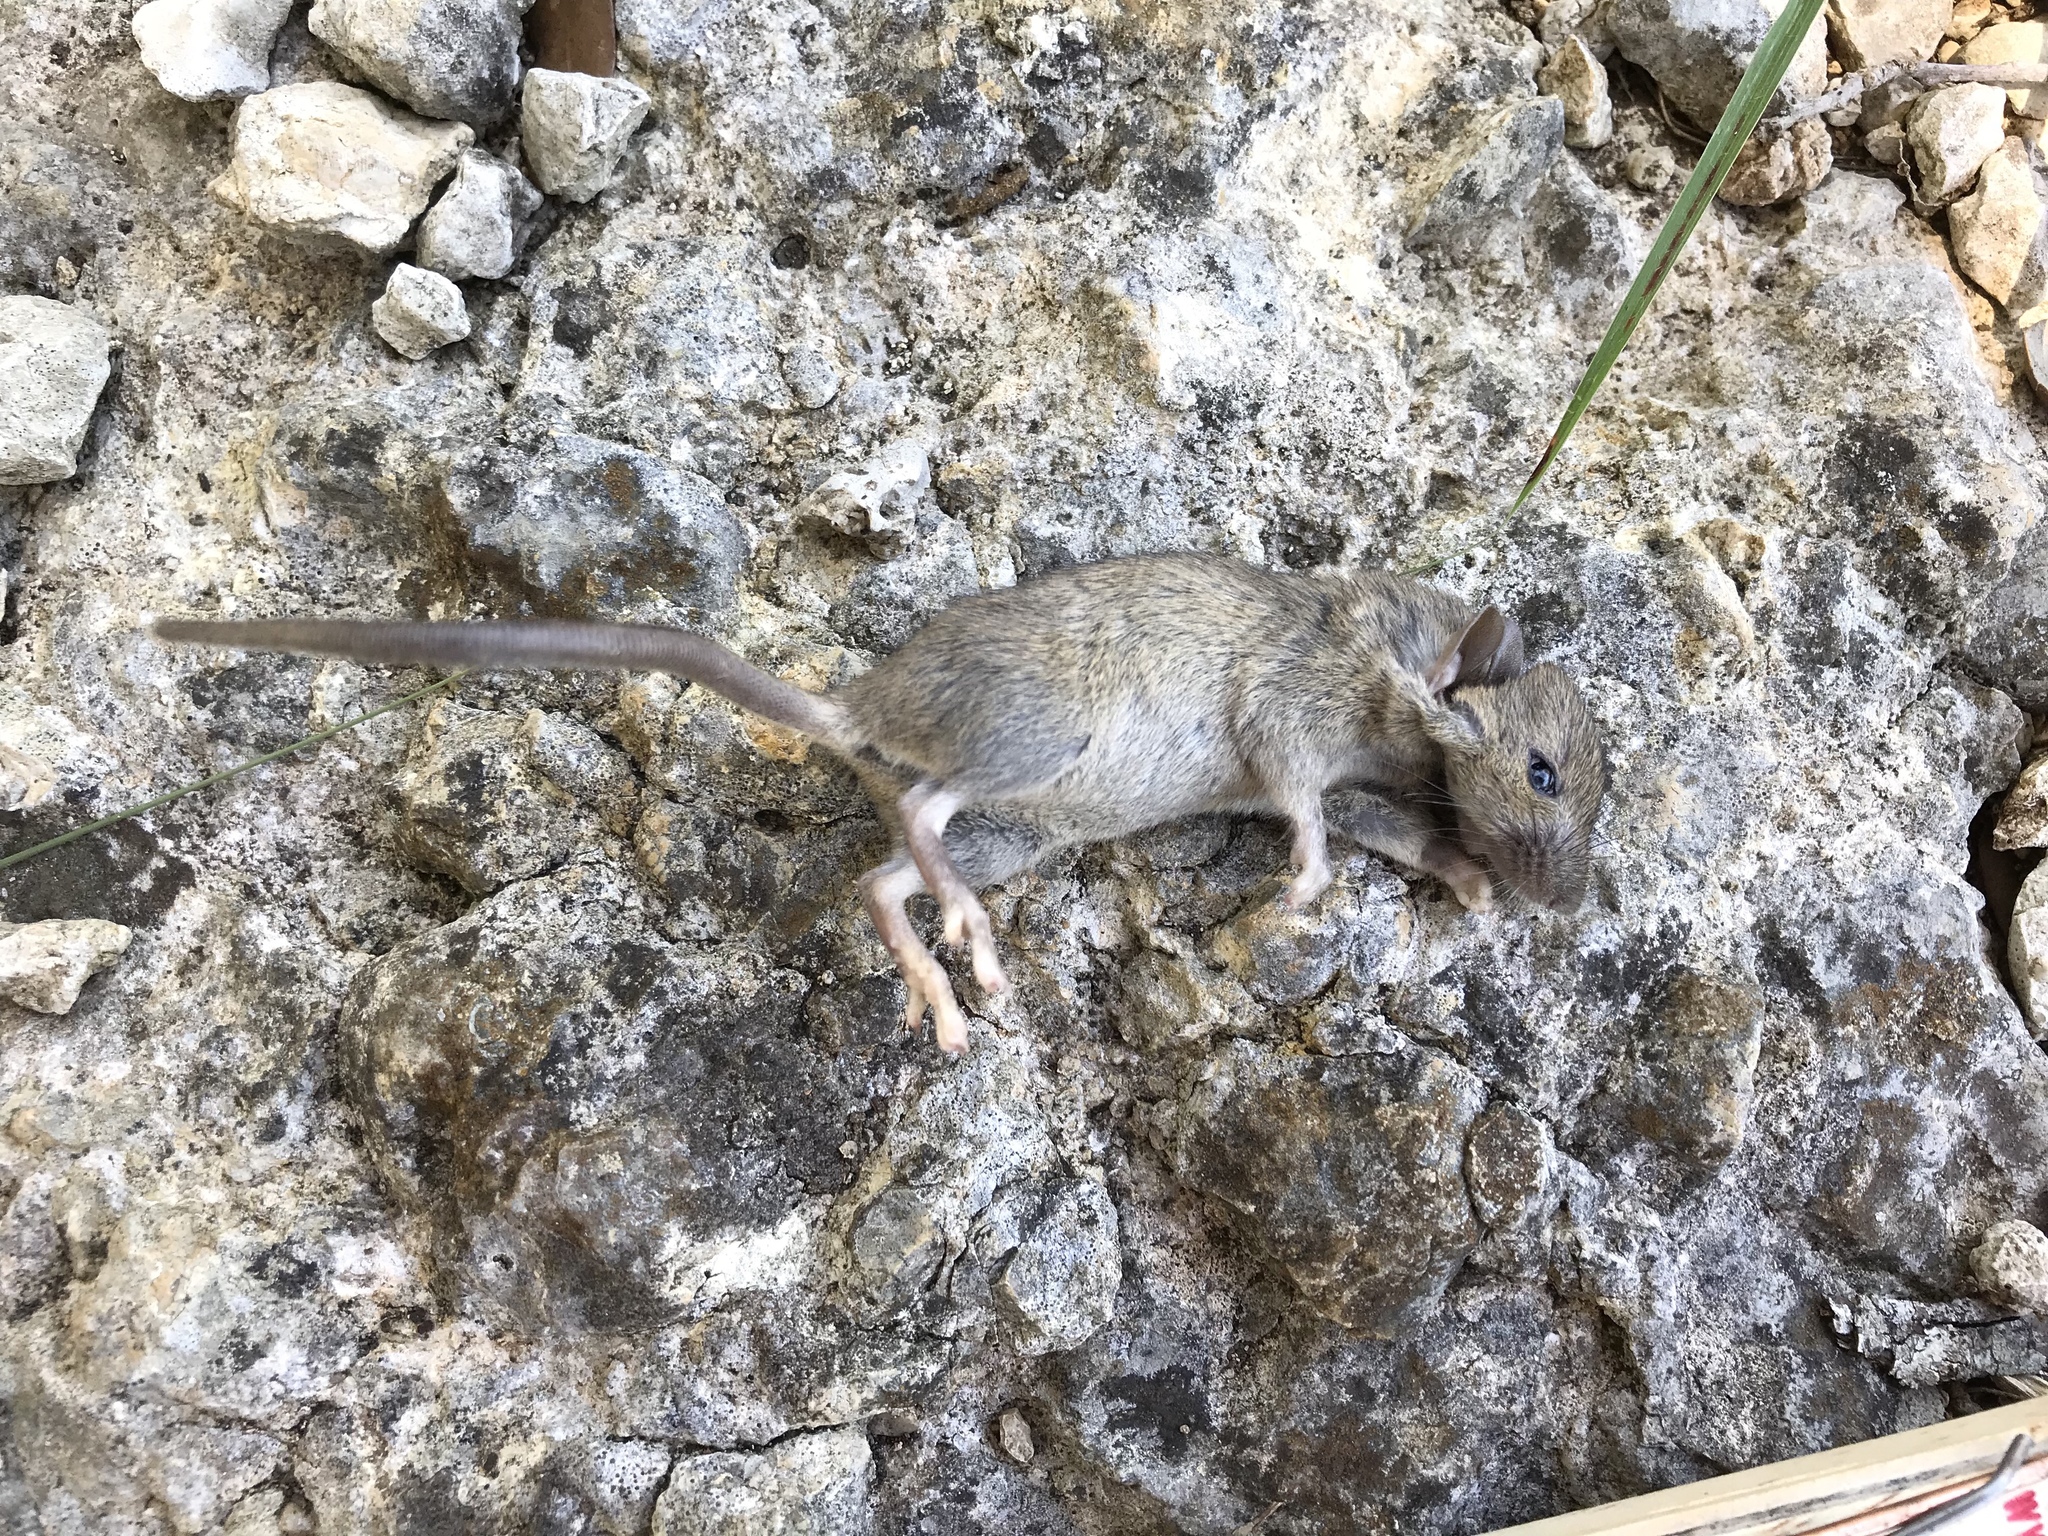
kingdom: Animalia
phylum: Chordata
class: Mammalia
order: Rodentia
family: Muridae
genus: Mus
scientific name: Mus musculus
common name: House mouse
